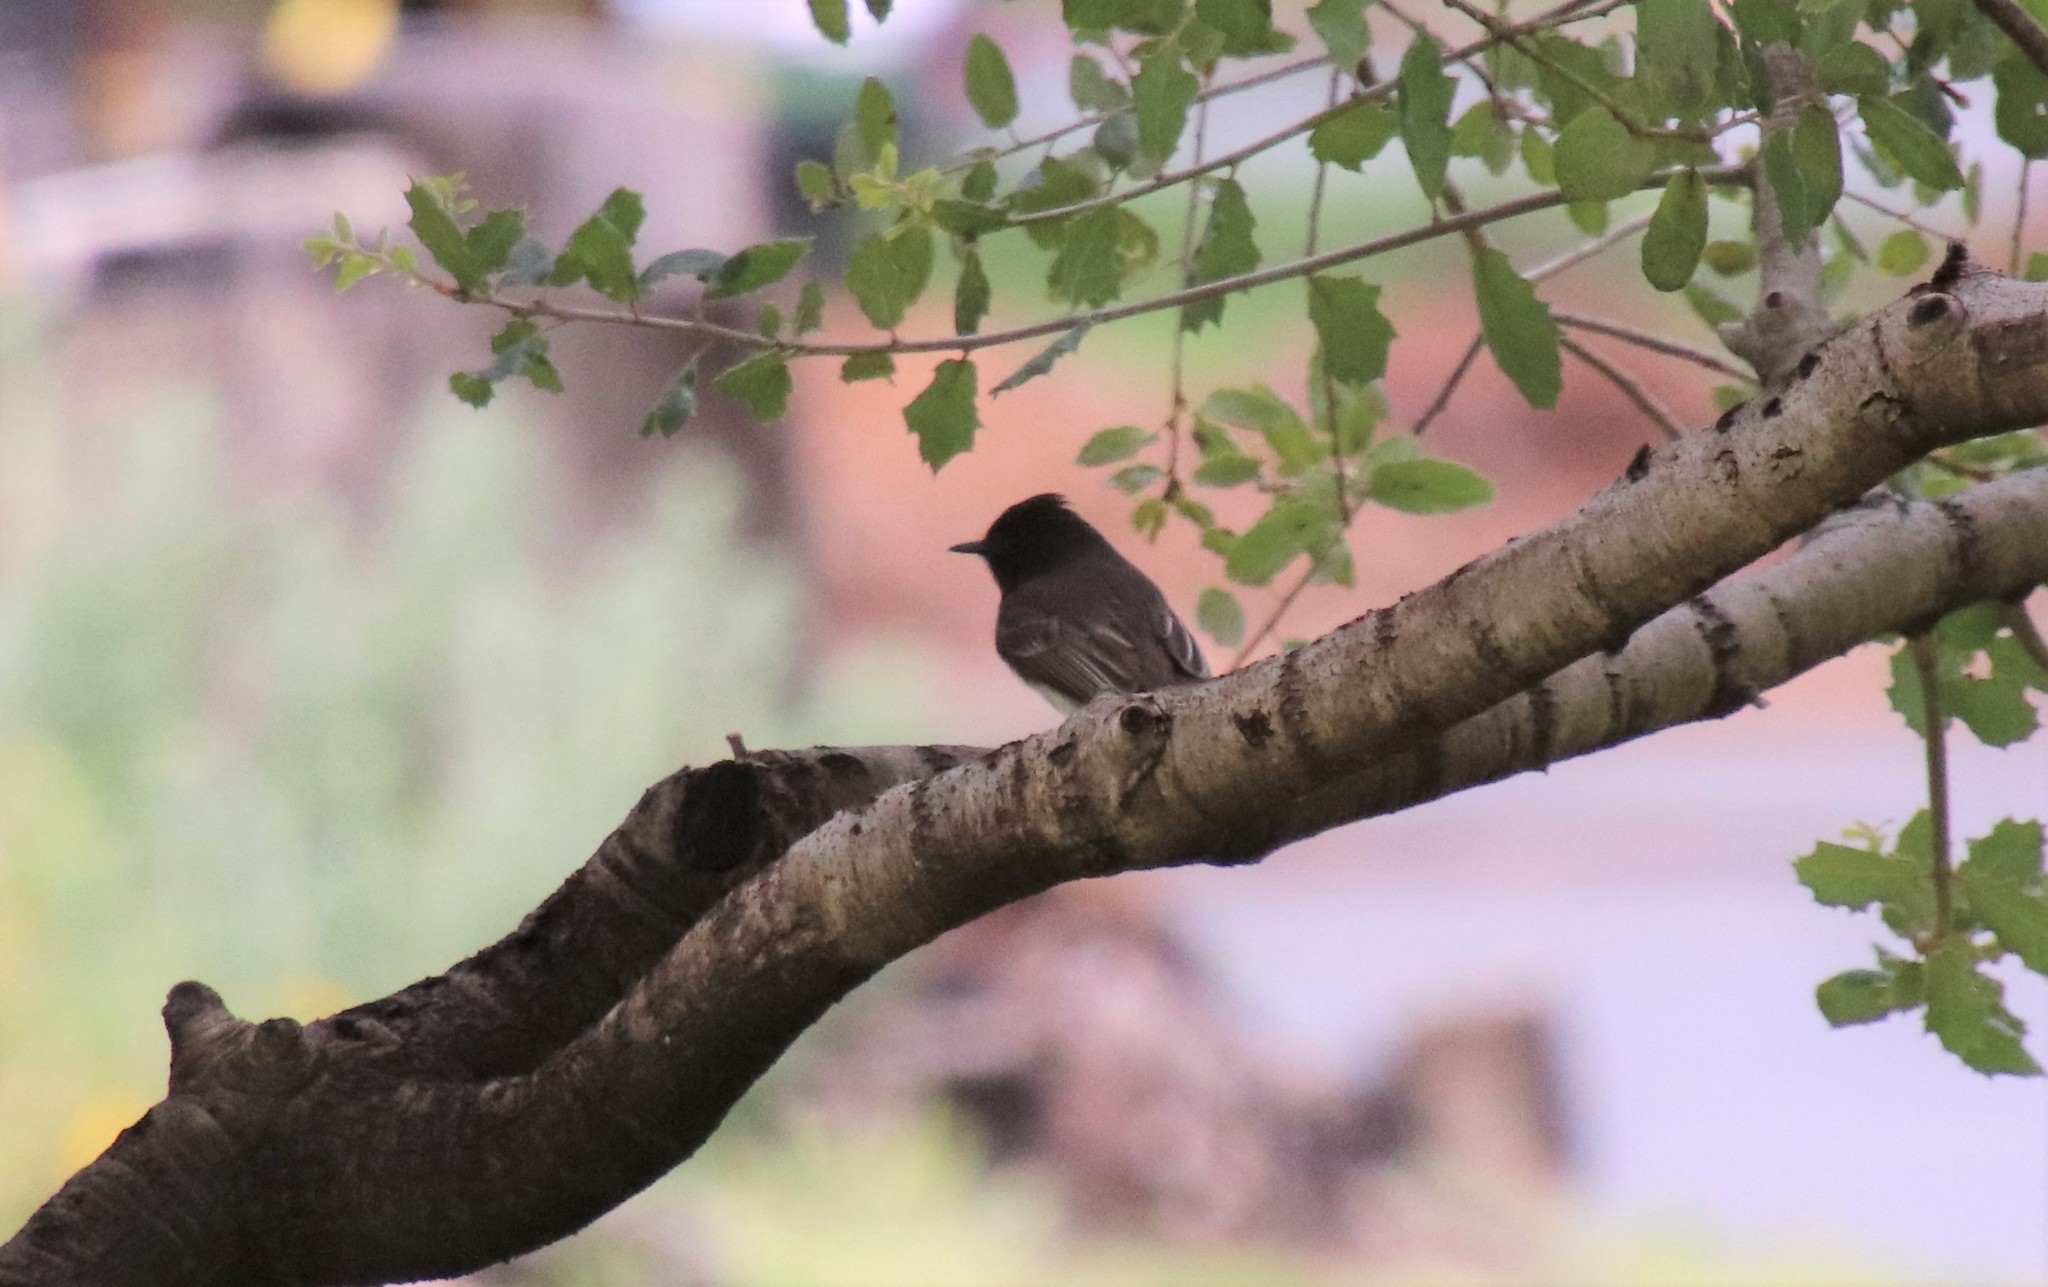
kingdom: Animalia
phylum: Chordata
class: Aves
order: Passeriformes
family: Tyrannidae
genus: Sayornis
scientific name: Sayornis nigricans
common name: Black phoebe
